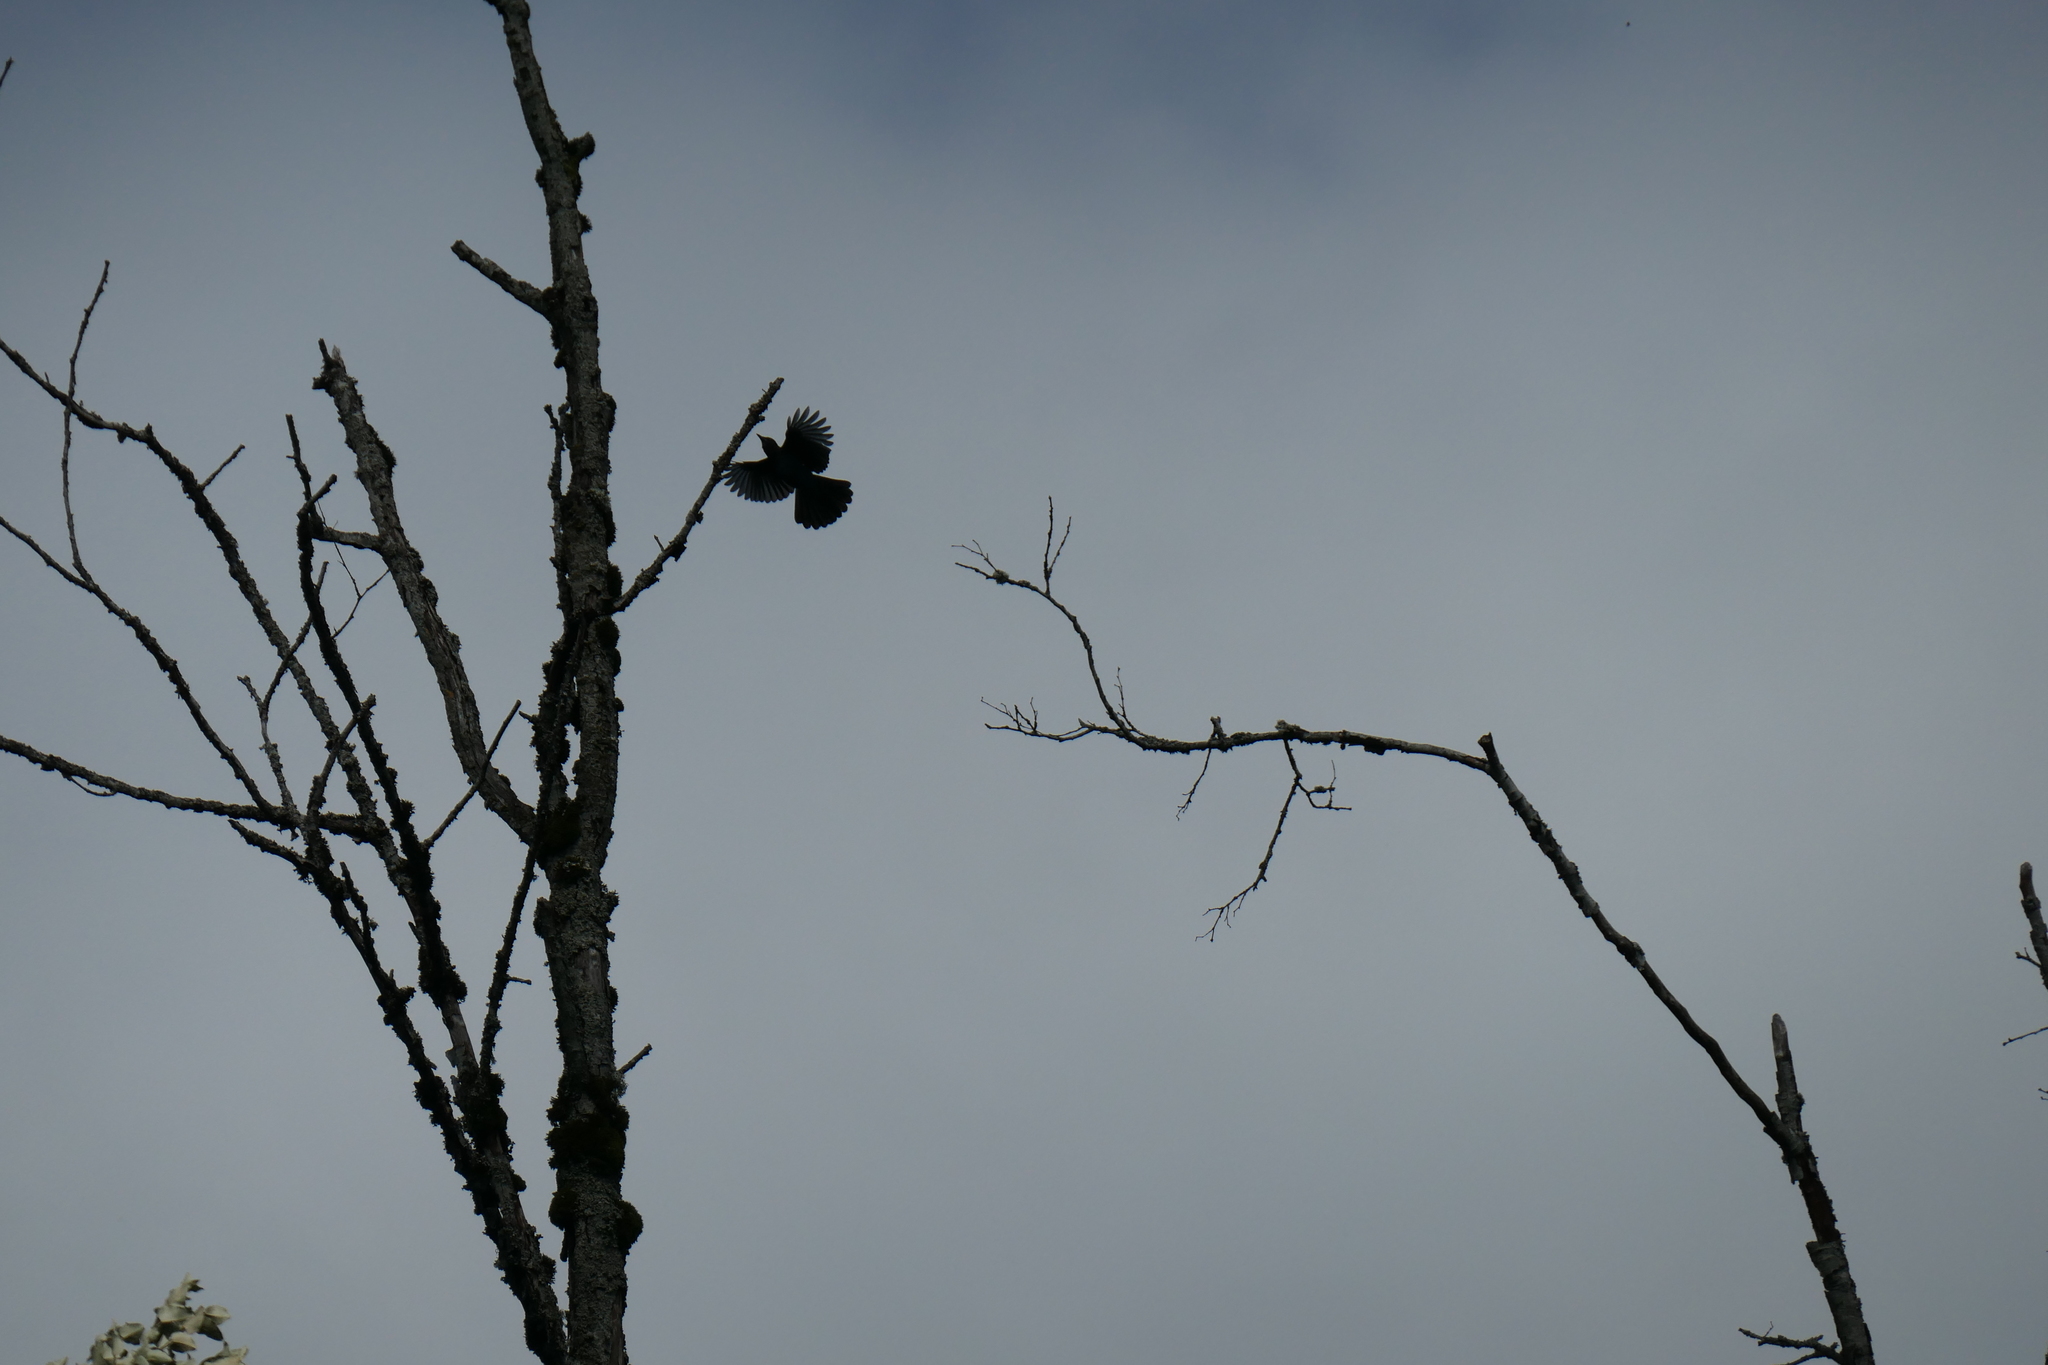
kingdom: Animalia
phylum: Chordata
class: Aves
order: Passeriformes
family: Corvidae
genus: Cyanocitta
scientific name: Cyanocitta stelleri
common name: Steller's jay
